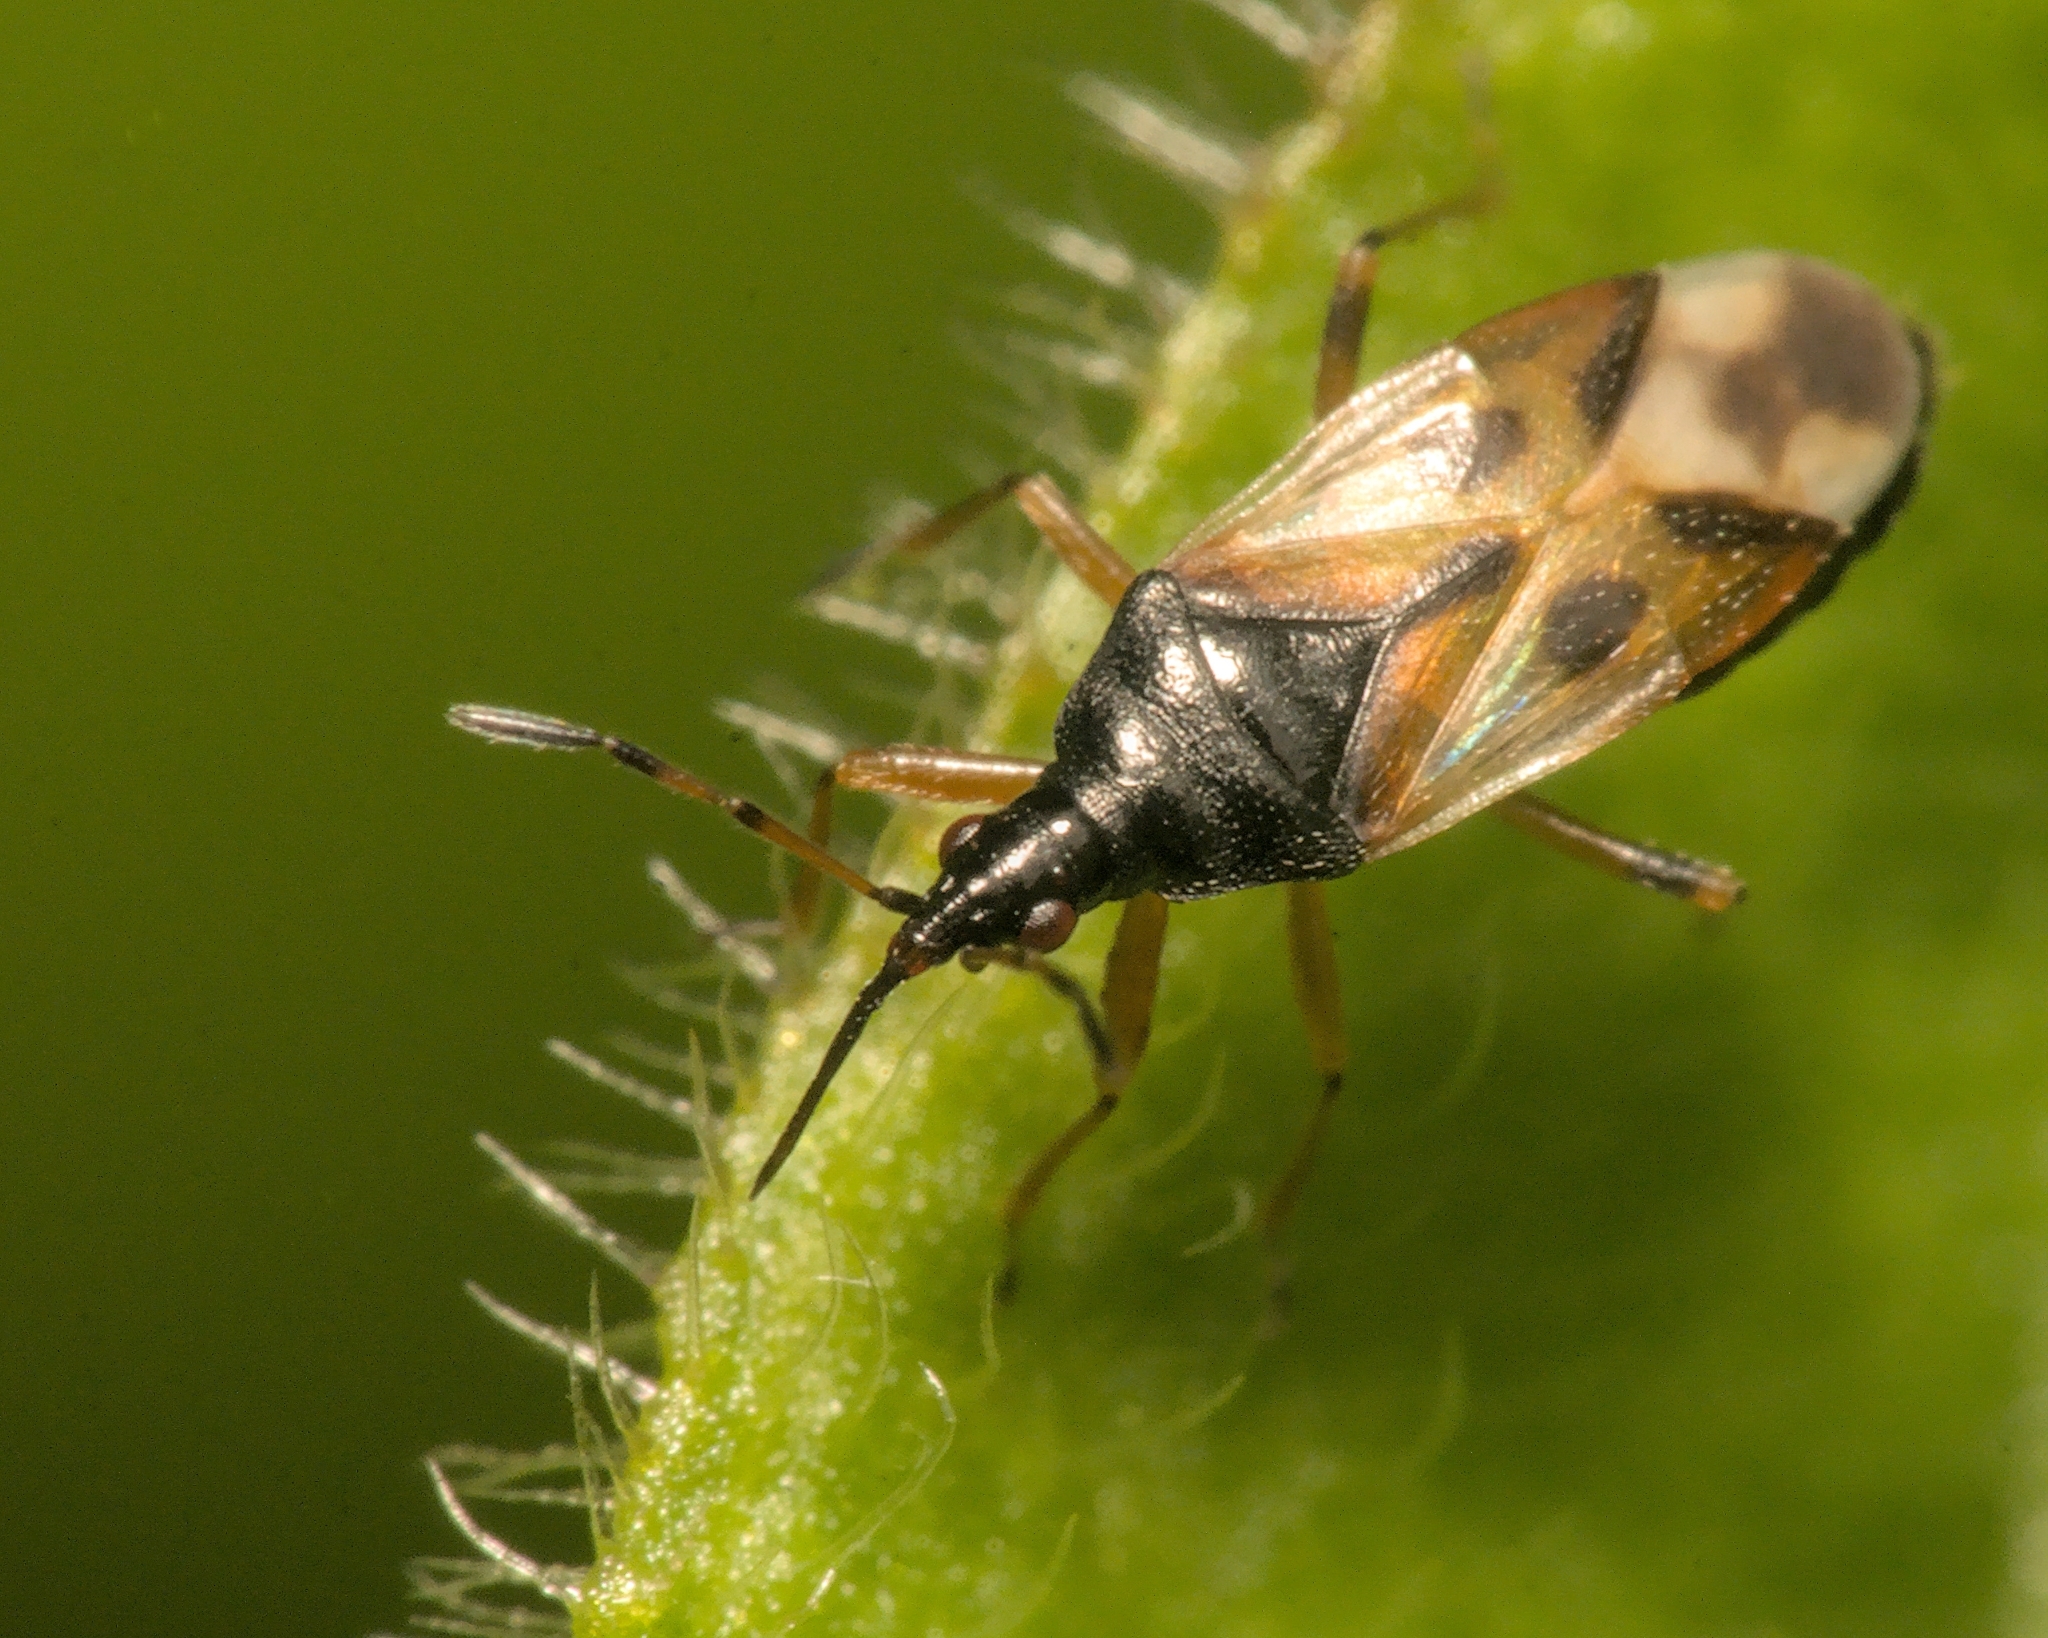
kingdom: Animalia
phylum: Arthropoda
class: Insecta
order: Hemiptera
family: Anthocoridae
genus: Anthocoris
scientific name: Anthocoris nemorum
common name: Minute pirate bug
